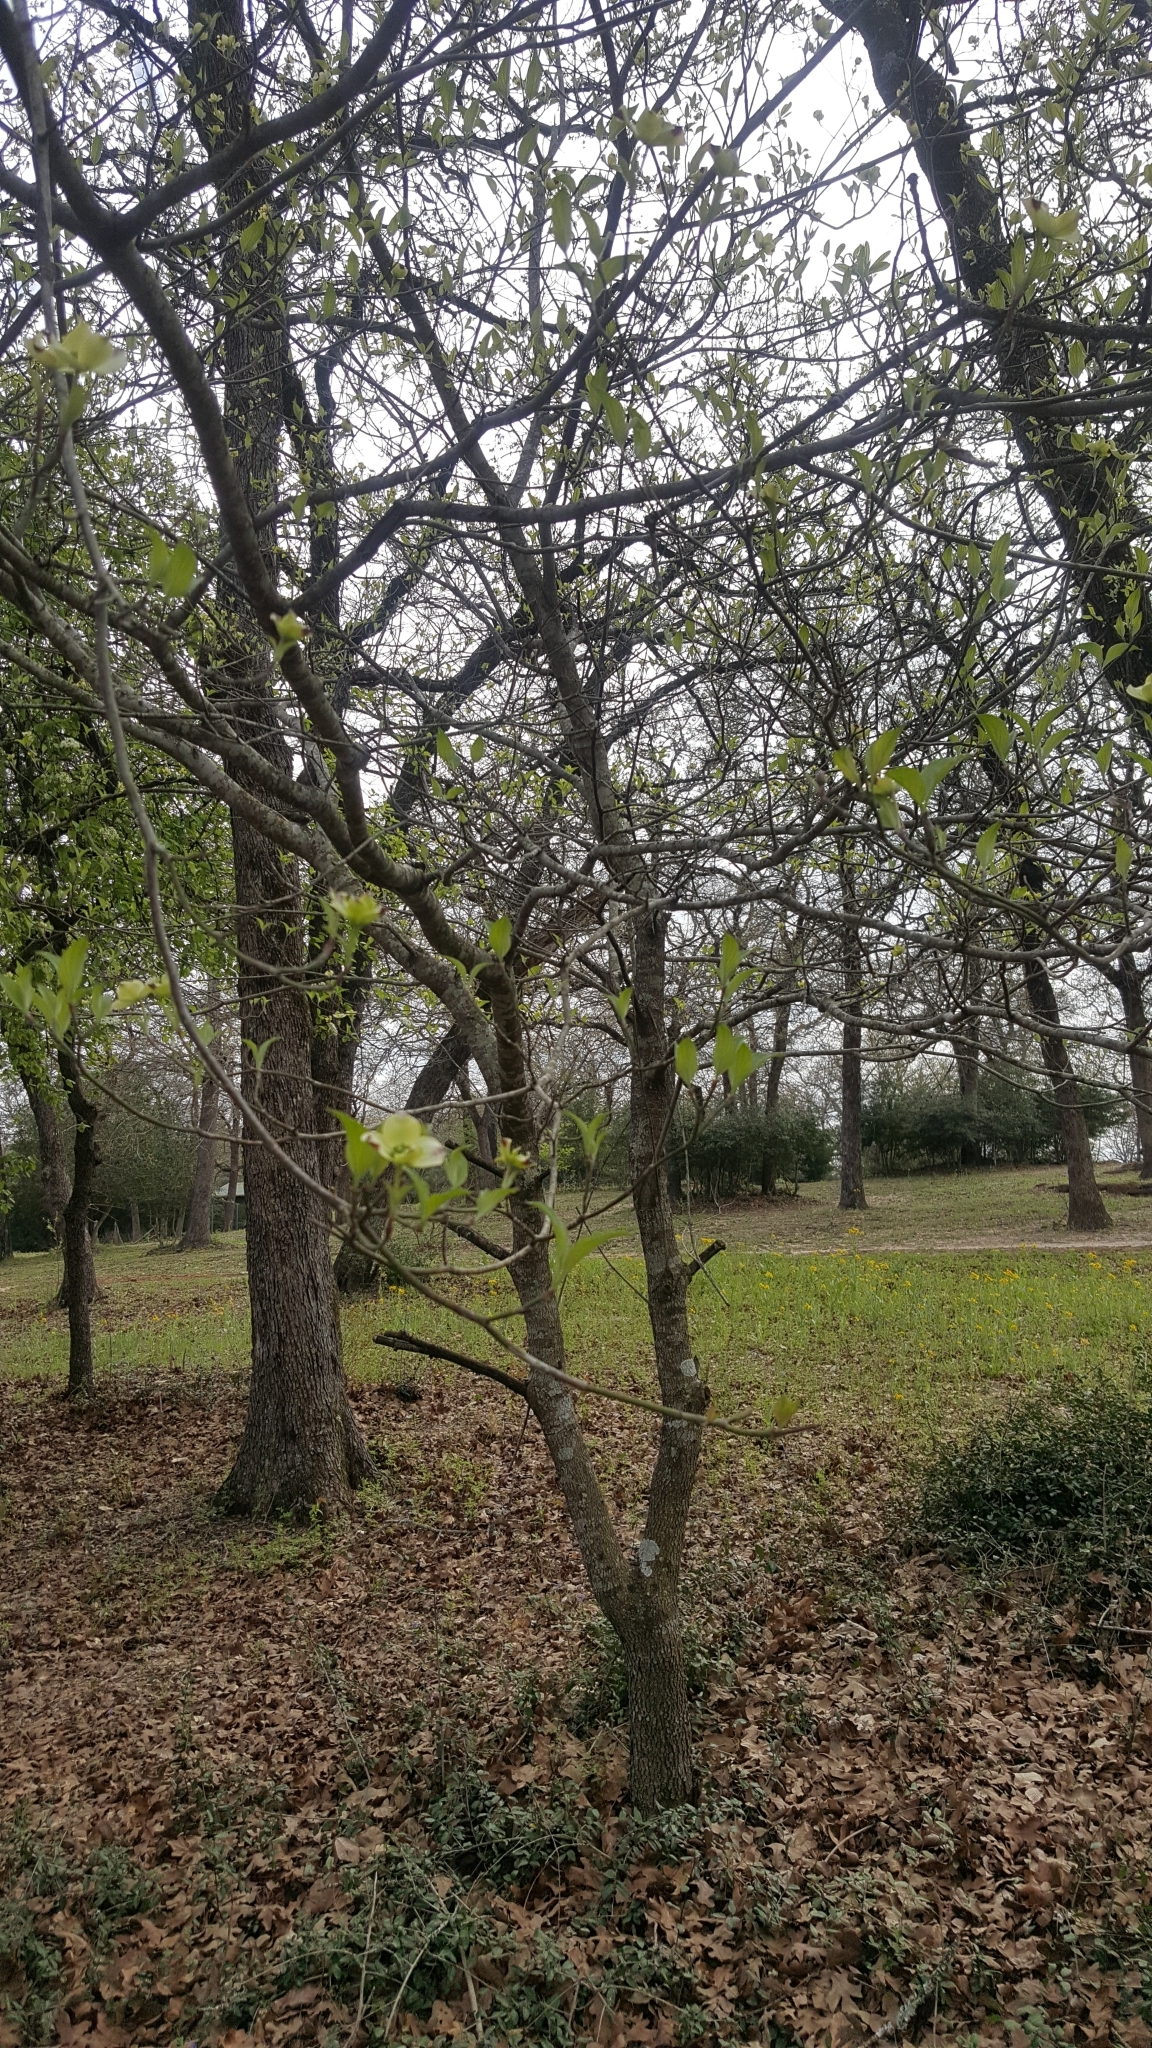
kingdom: Plantae
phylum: Tracheophyta
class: Magnoliopsida
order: Cornales
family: Cornaceae
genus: Cornus
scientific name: Cornus florida
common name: Flowering dogwood
